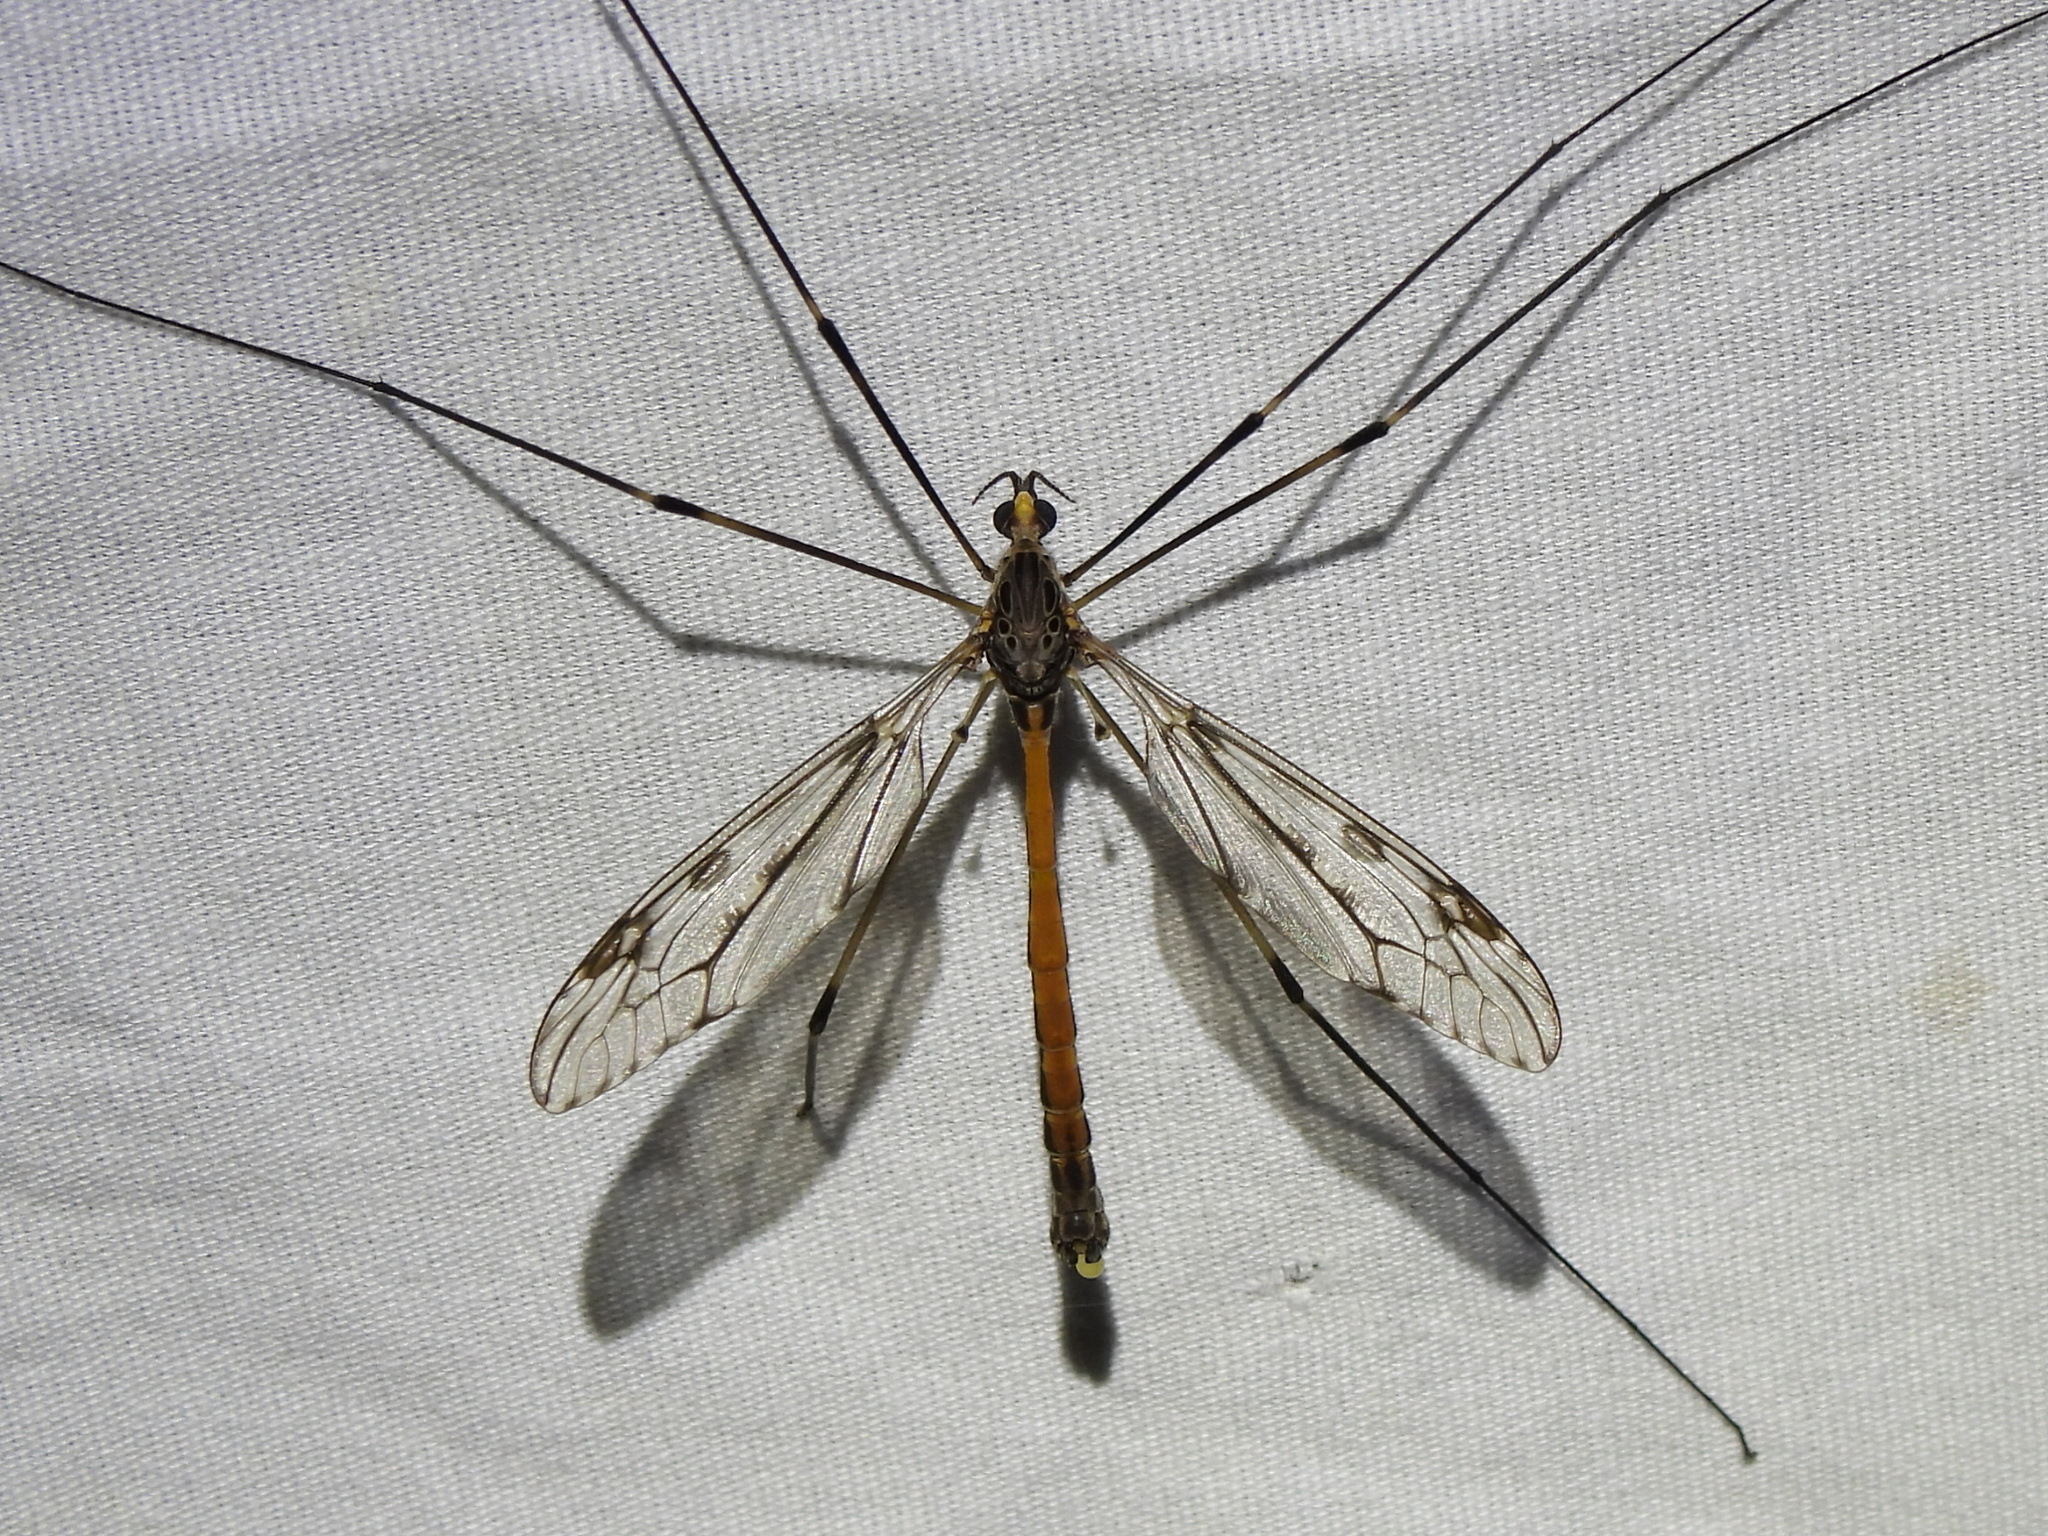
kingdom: Animalia
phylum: Arthropoda
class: Insecta
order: Diptera
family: Tipulidae
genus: Tipula
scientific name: Tipula abdominalis
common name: Giant crane fly
